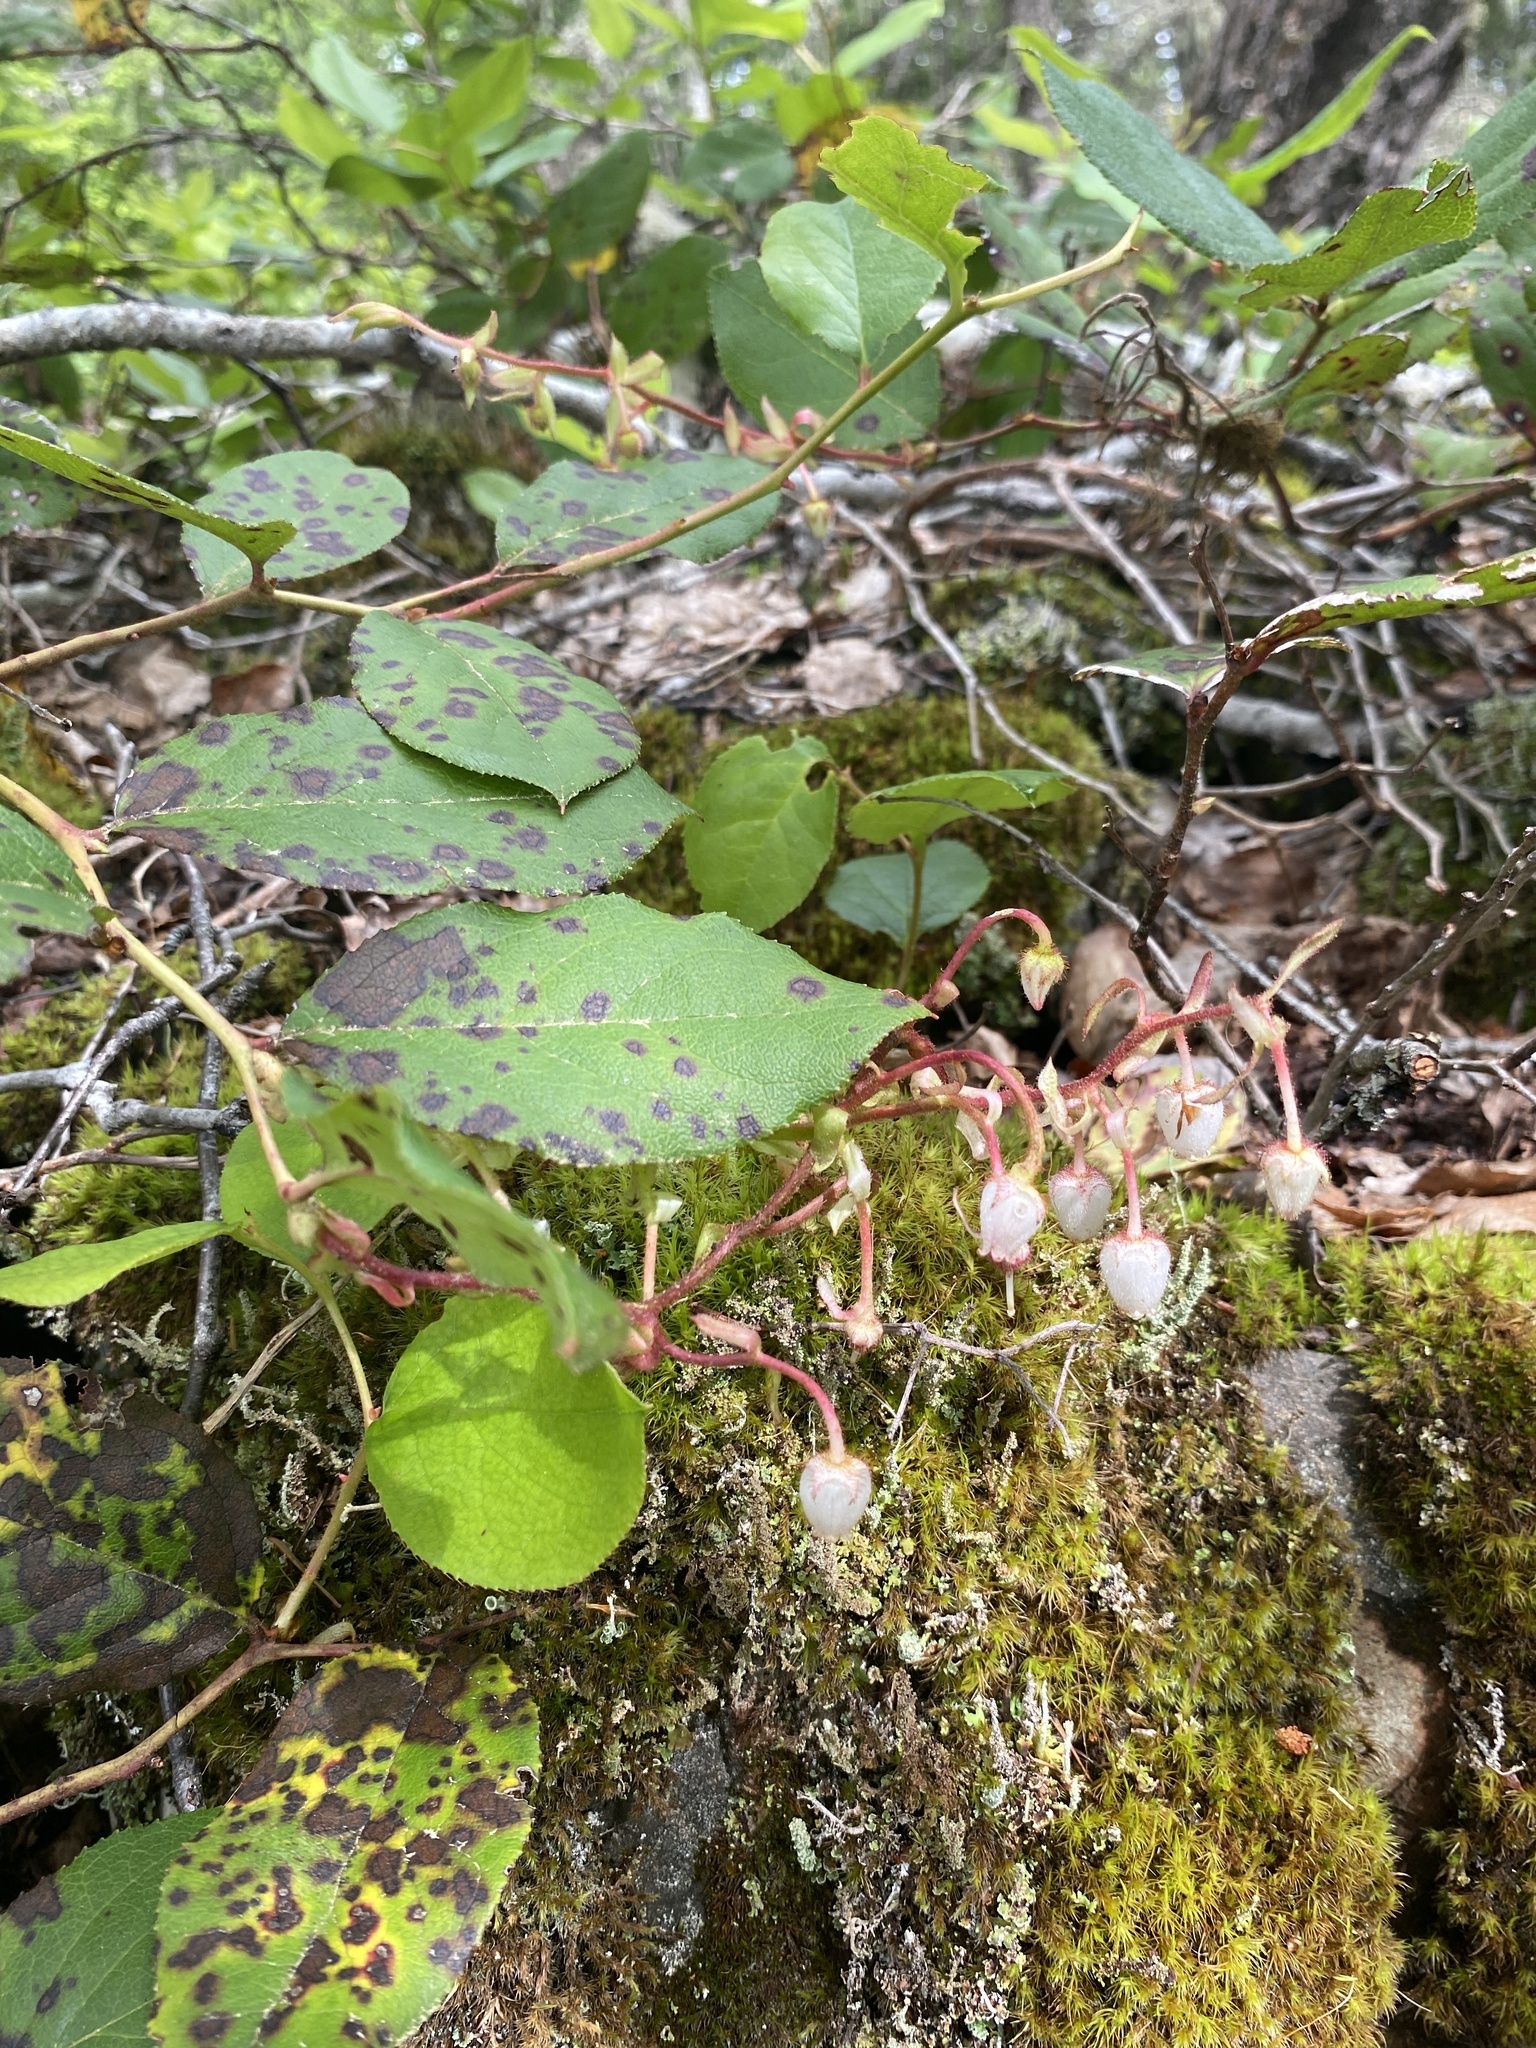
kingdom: Plantae
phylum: Tracheophyta
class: Magnoliopsida
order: Ericales
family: Ericaceae
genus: Gaultheria
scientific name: Gaultheria shallon
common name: Shallon
